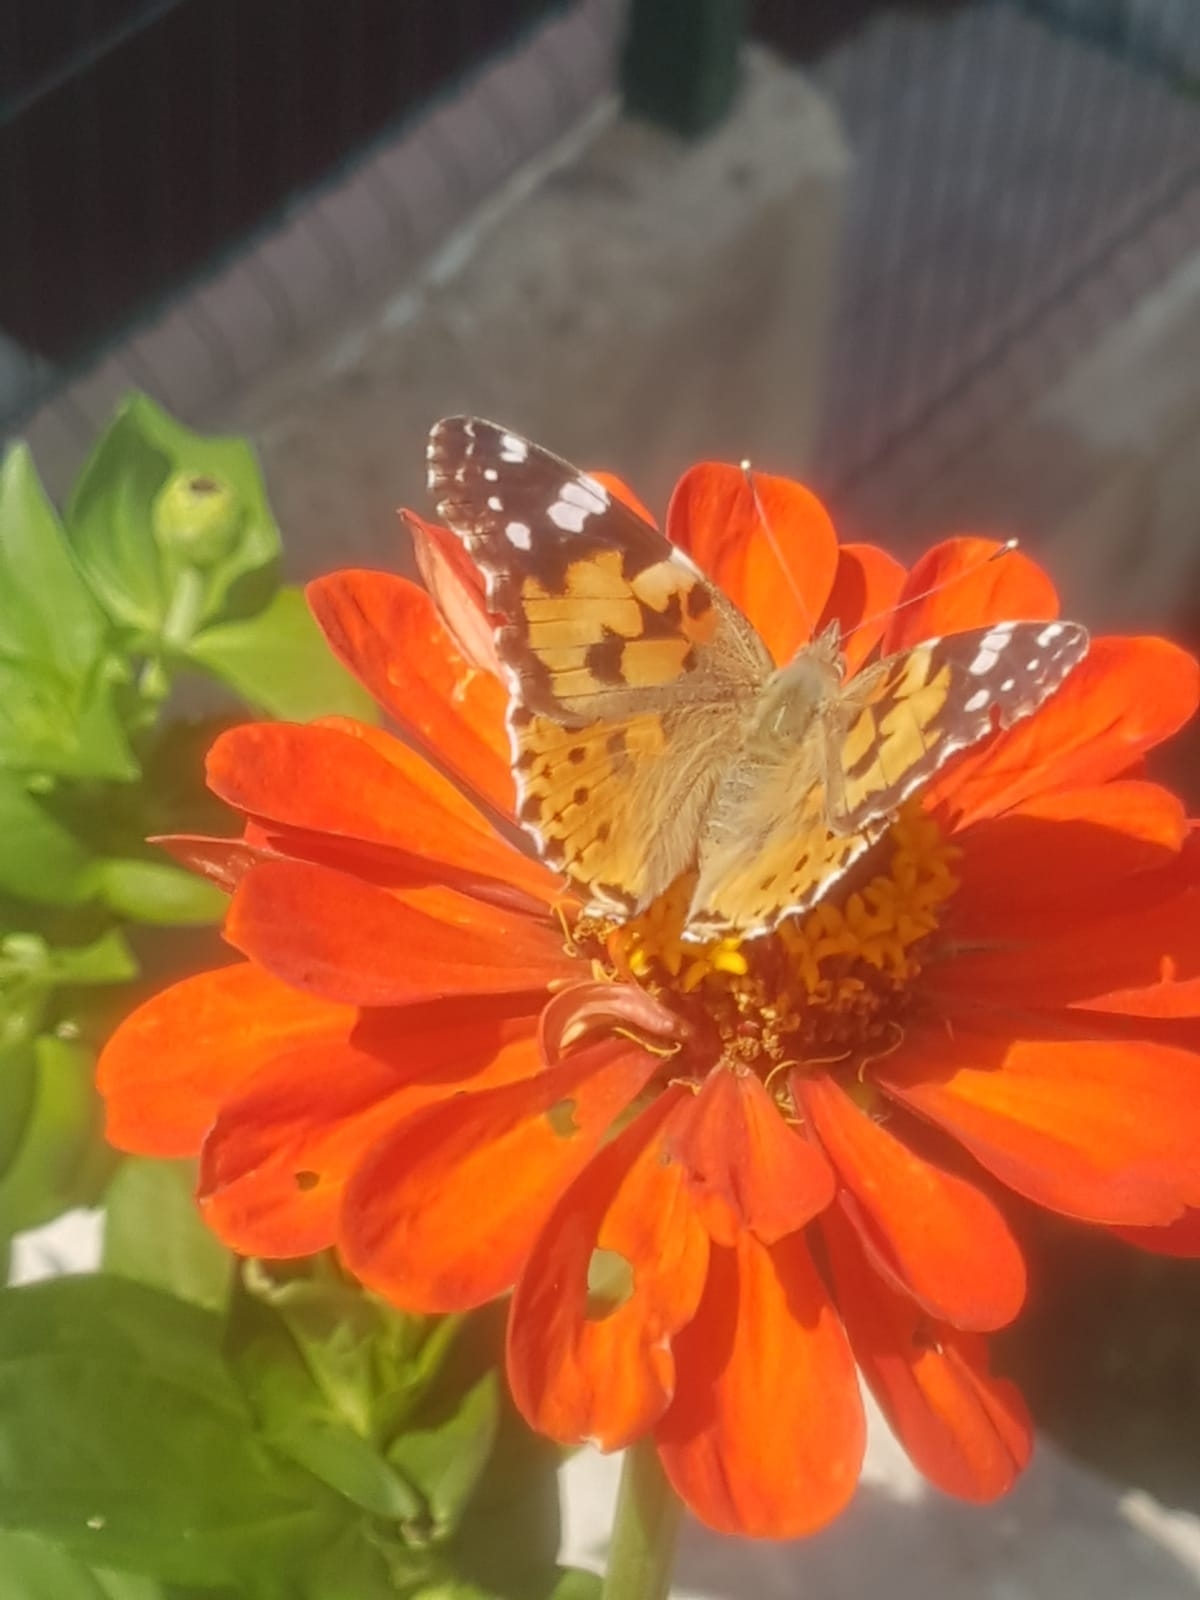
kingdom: Animalia
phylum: Arthropoda
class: Insecta
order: Lepidoptera
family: Nymphalidae
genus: Vanessa
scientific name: Vanessa cardui
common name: Painted lady
